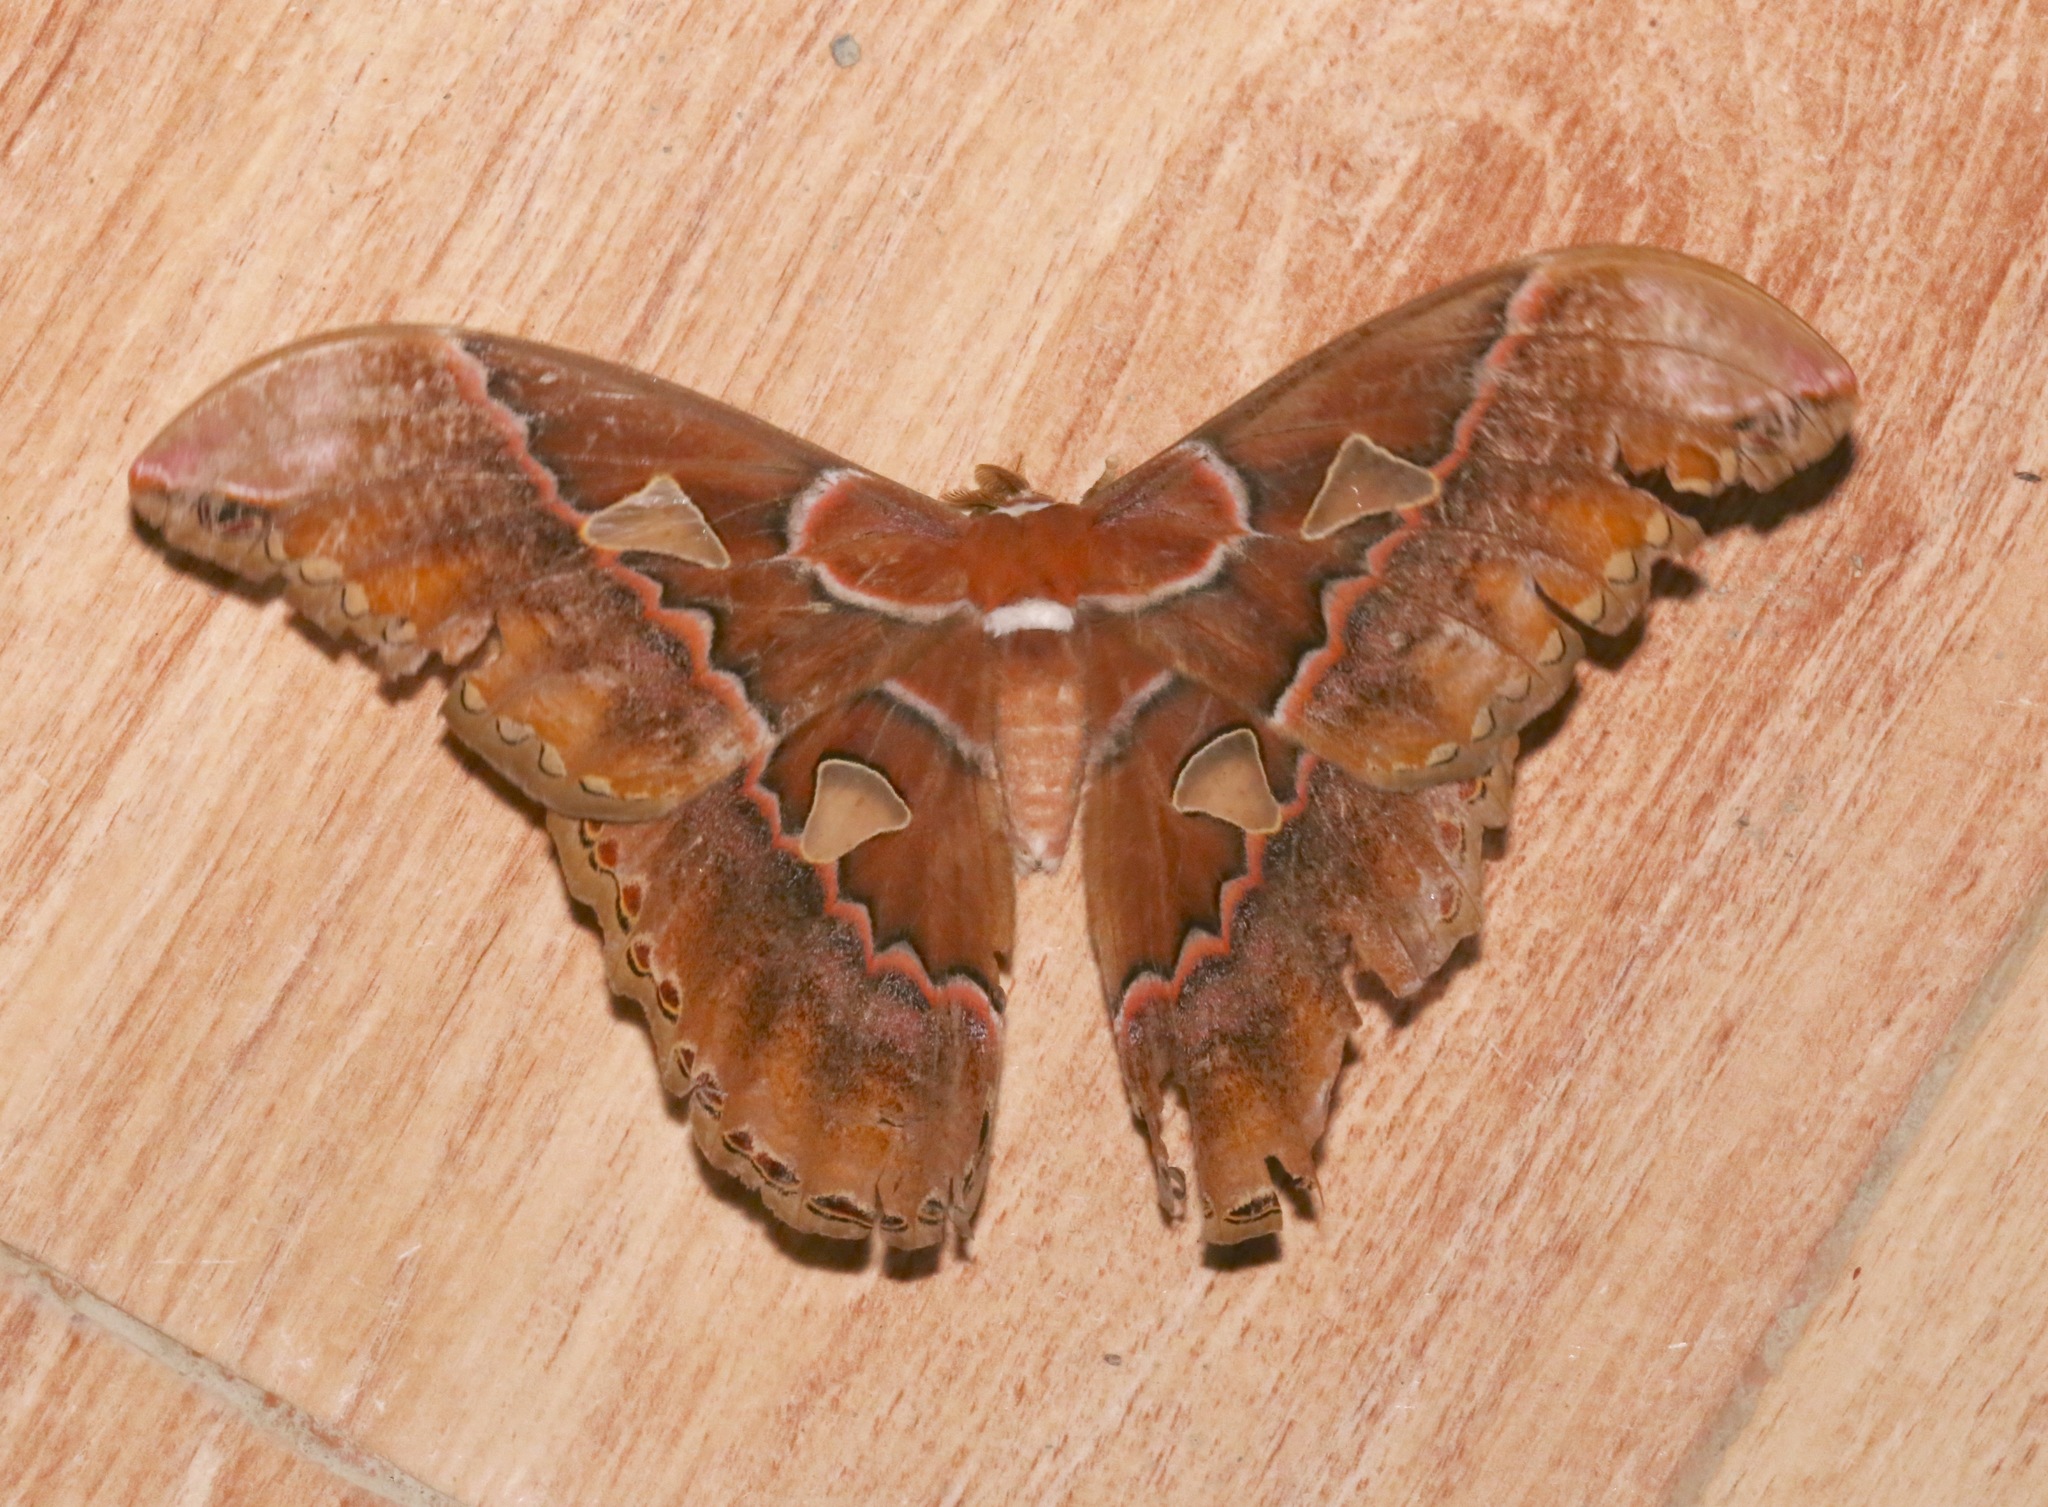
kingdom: Animalia
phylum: Arthropoda
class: Insecta
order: Lepidoptera
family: Saturniidae
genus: Rothschildia
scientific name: Rothschildia orizaba
